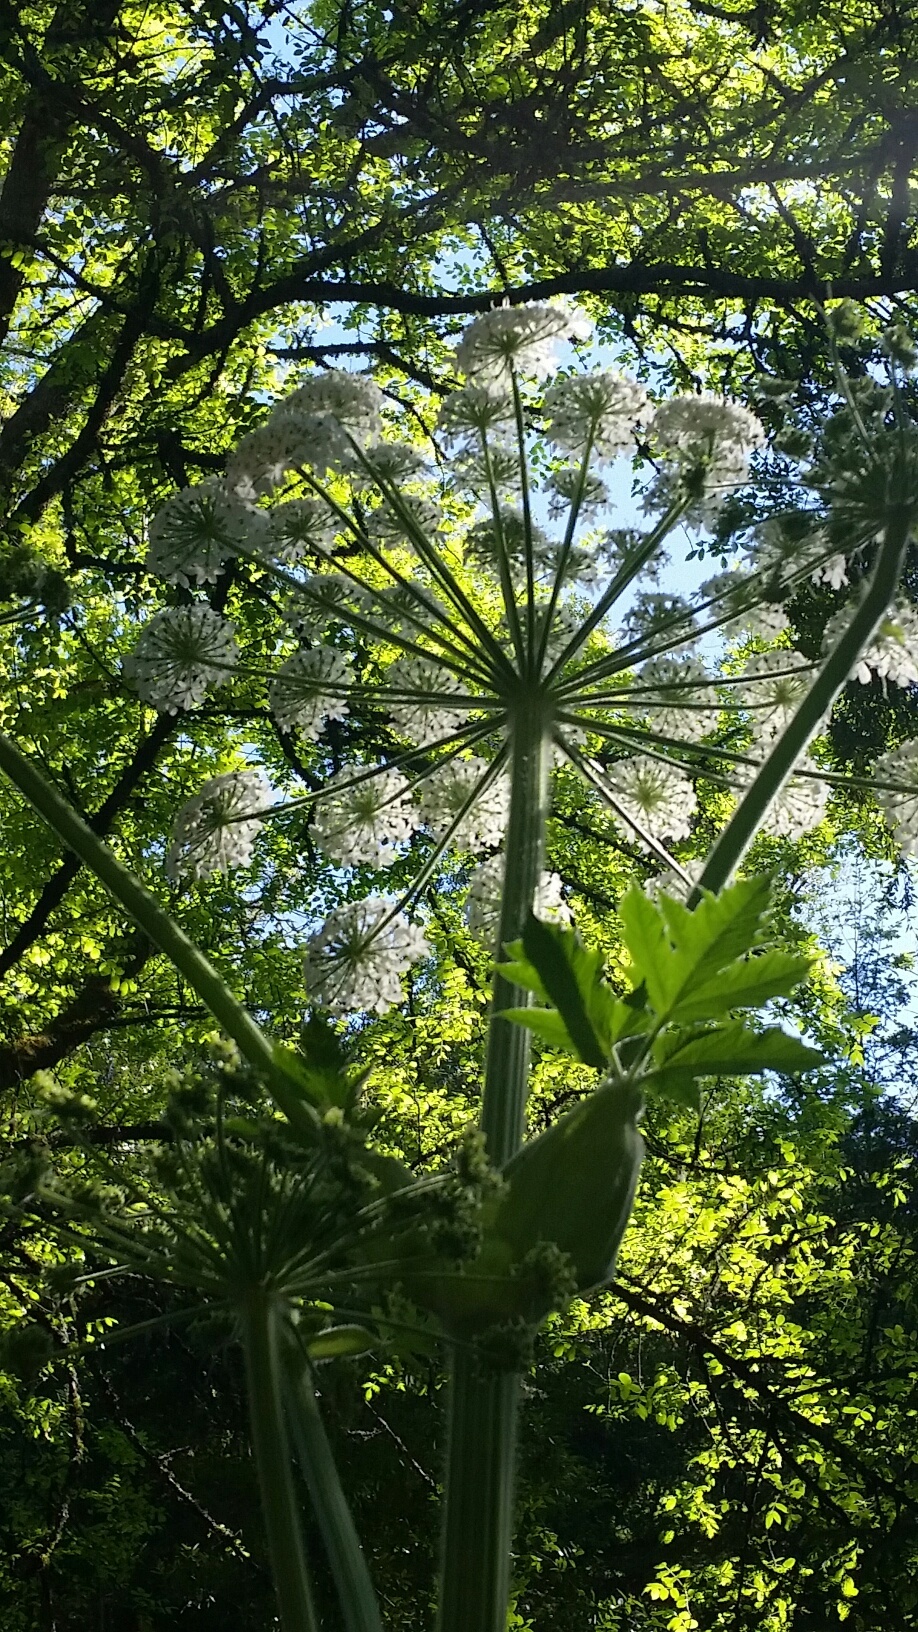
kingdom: Plantae
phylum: Tracheophyta
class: Magnoliopsida
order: Apiales
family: Apiaceae
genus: Heracleum
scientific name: Heracleum maximum
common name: American cow parsnip
